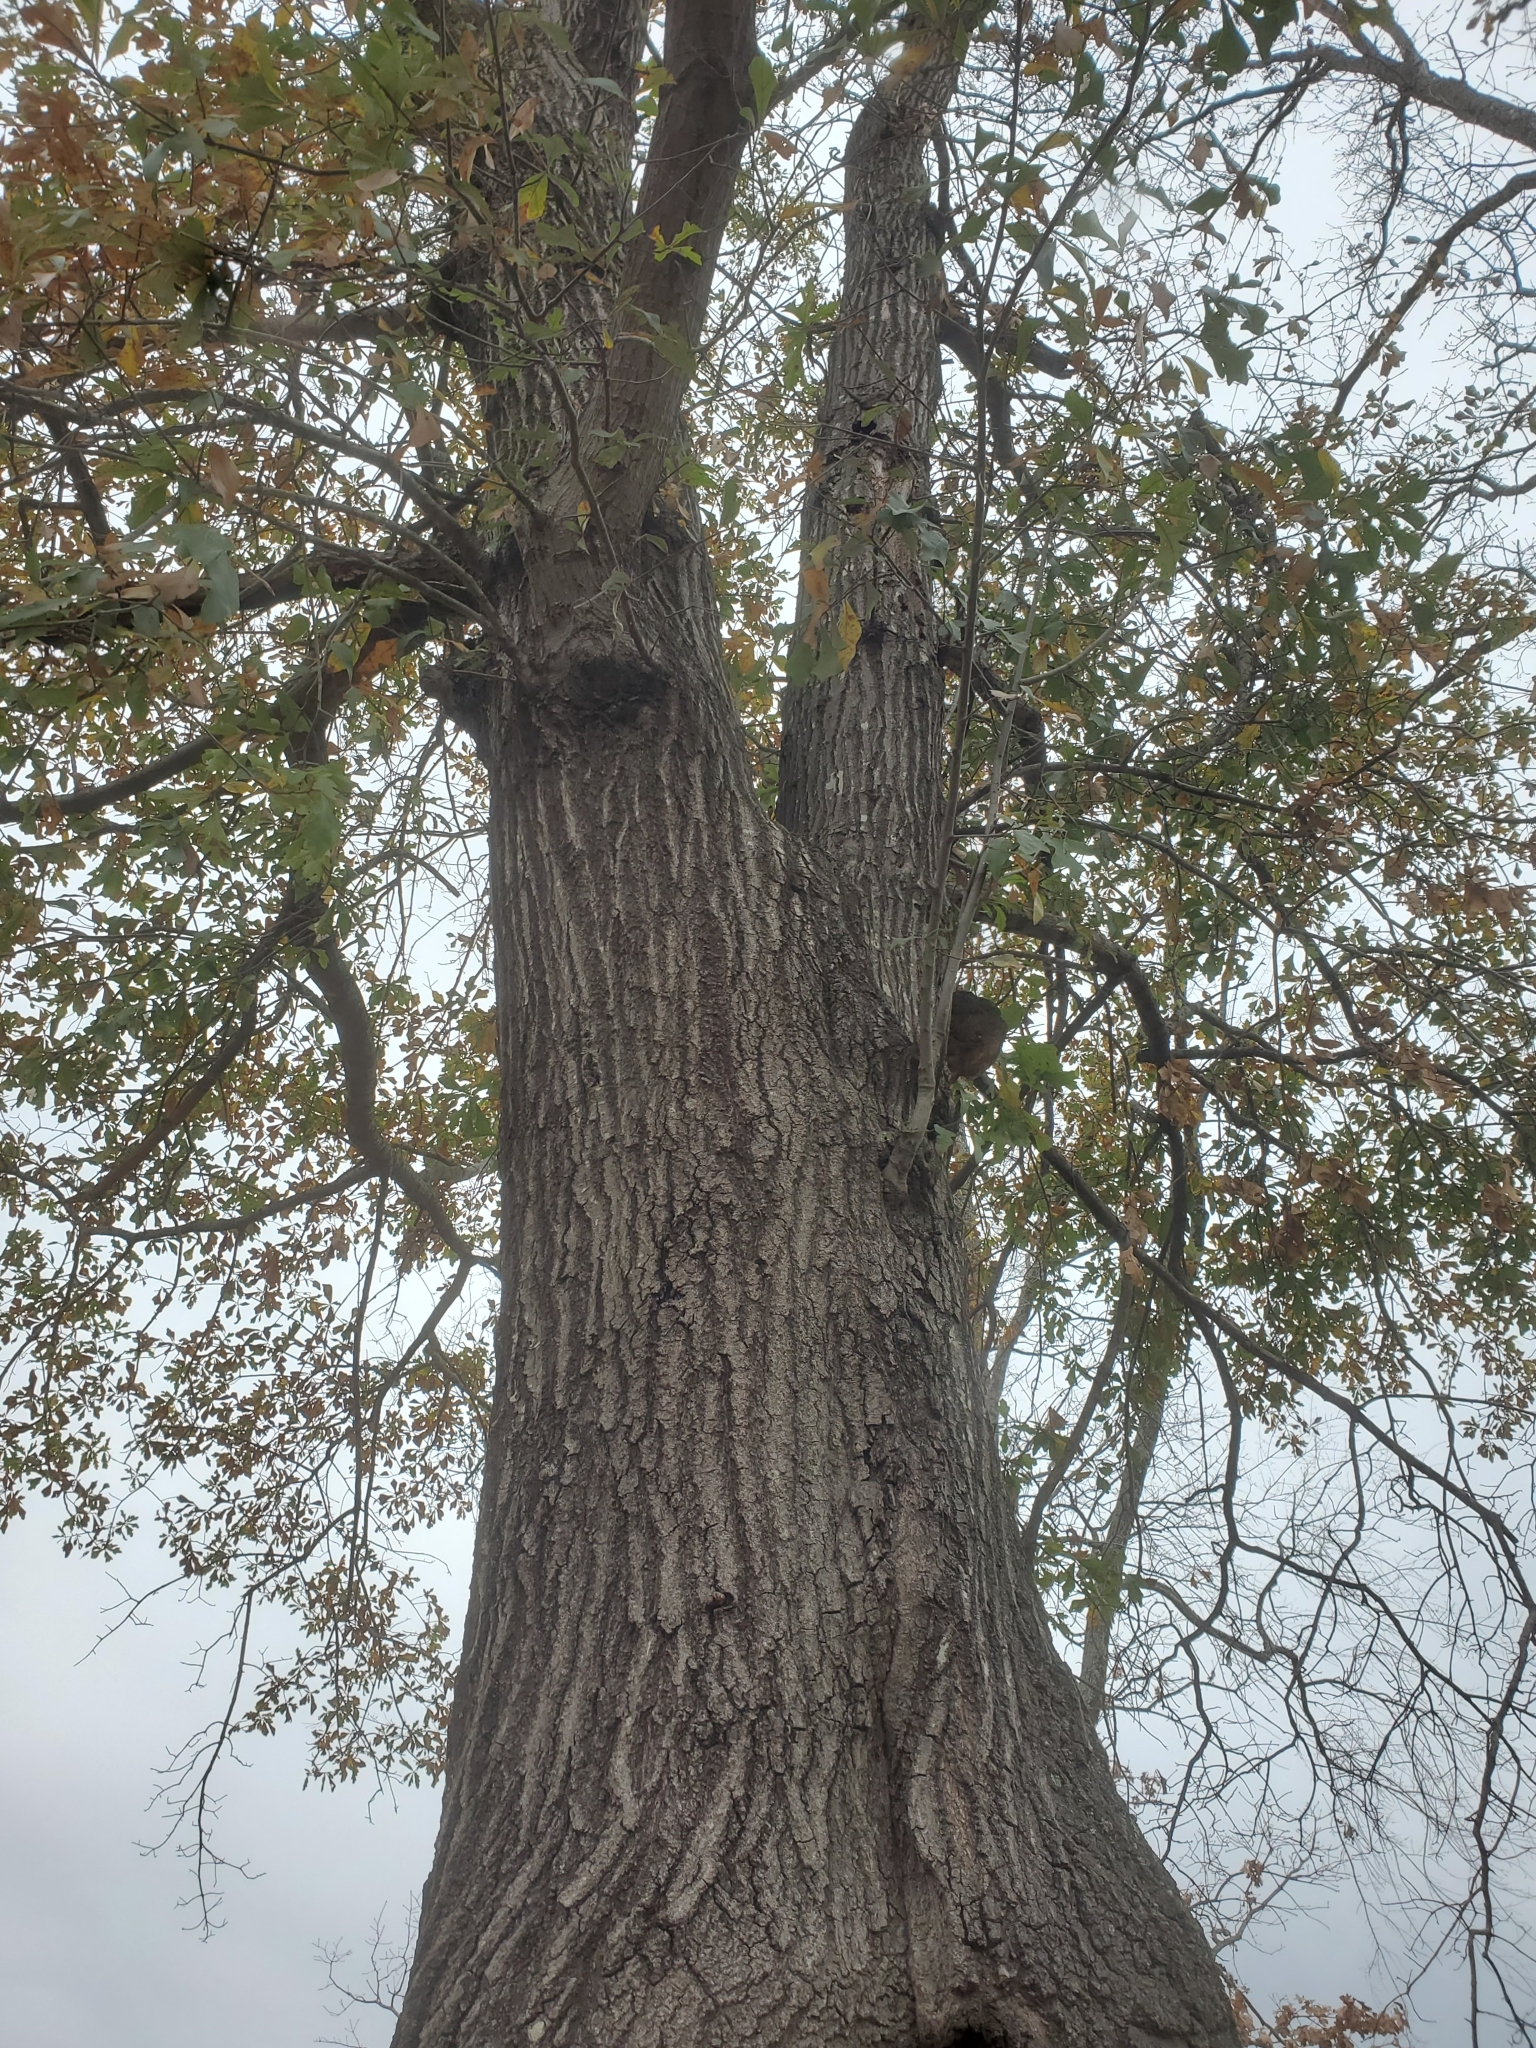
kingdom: Plantae
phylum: Tracheophyta
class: Magnoliopsida
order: Fagales
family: Fagaceae
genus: Quercus
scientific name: Quercus nigra
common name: Water oak
